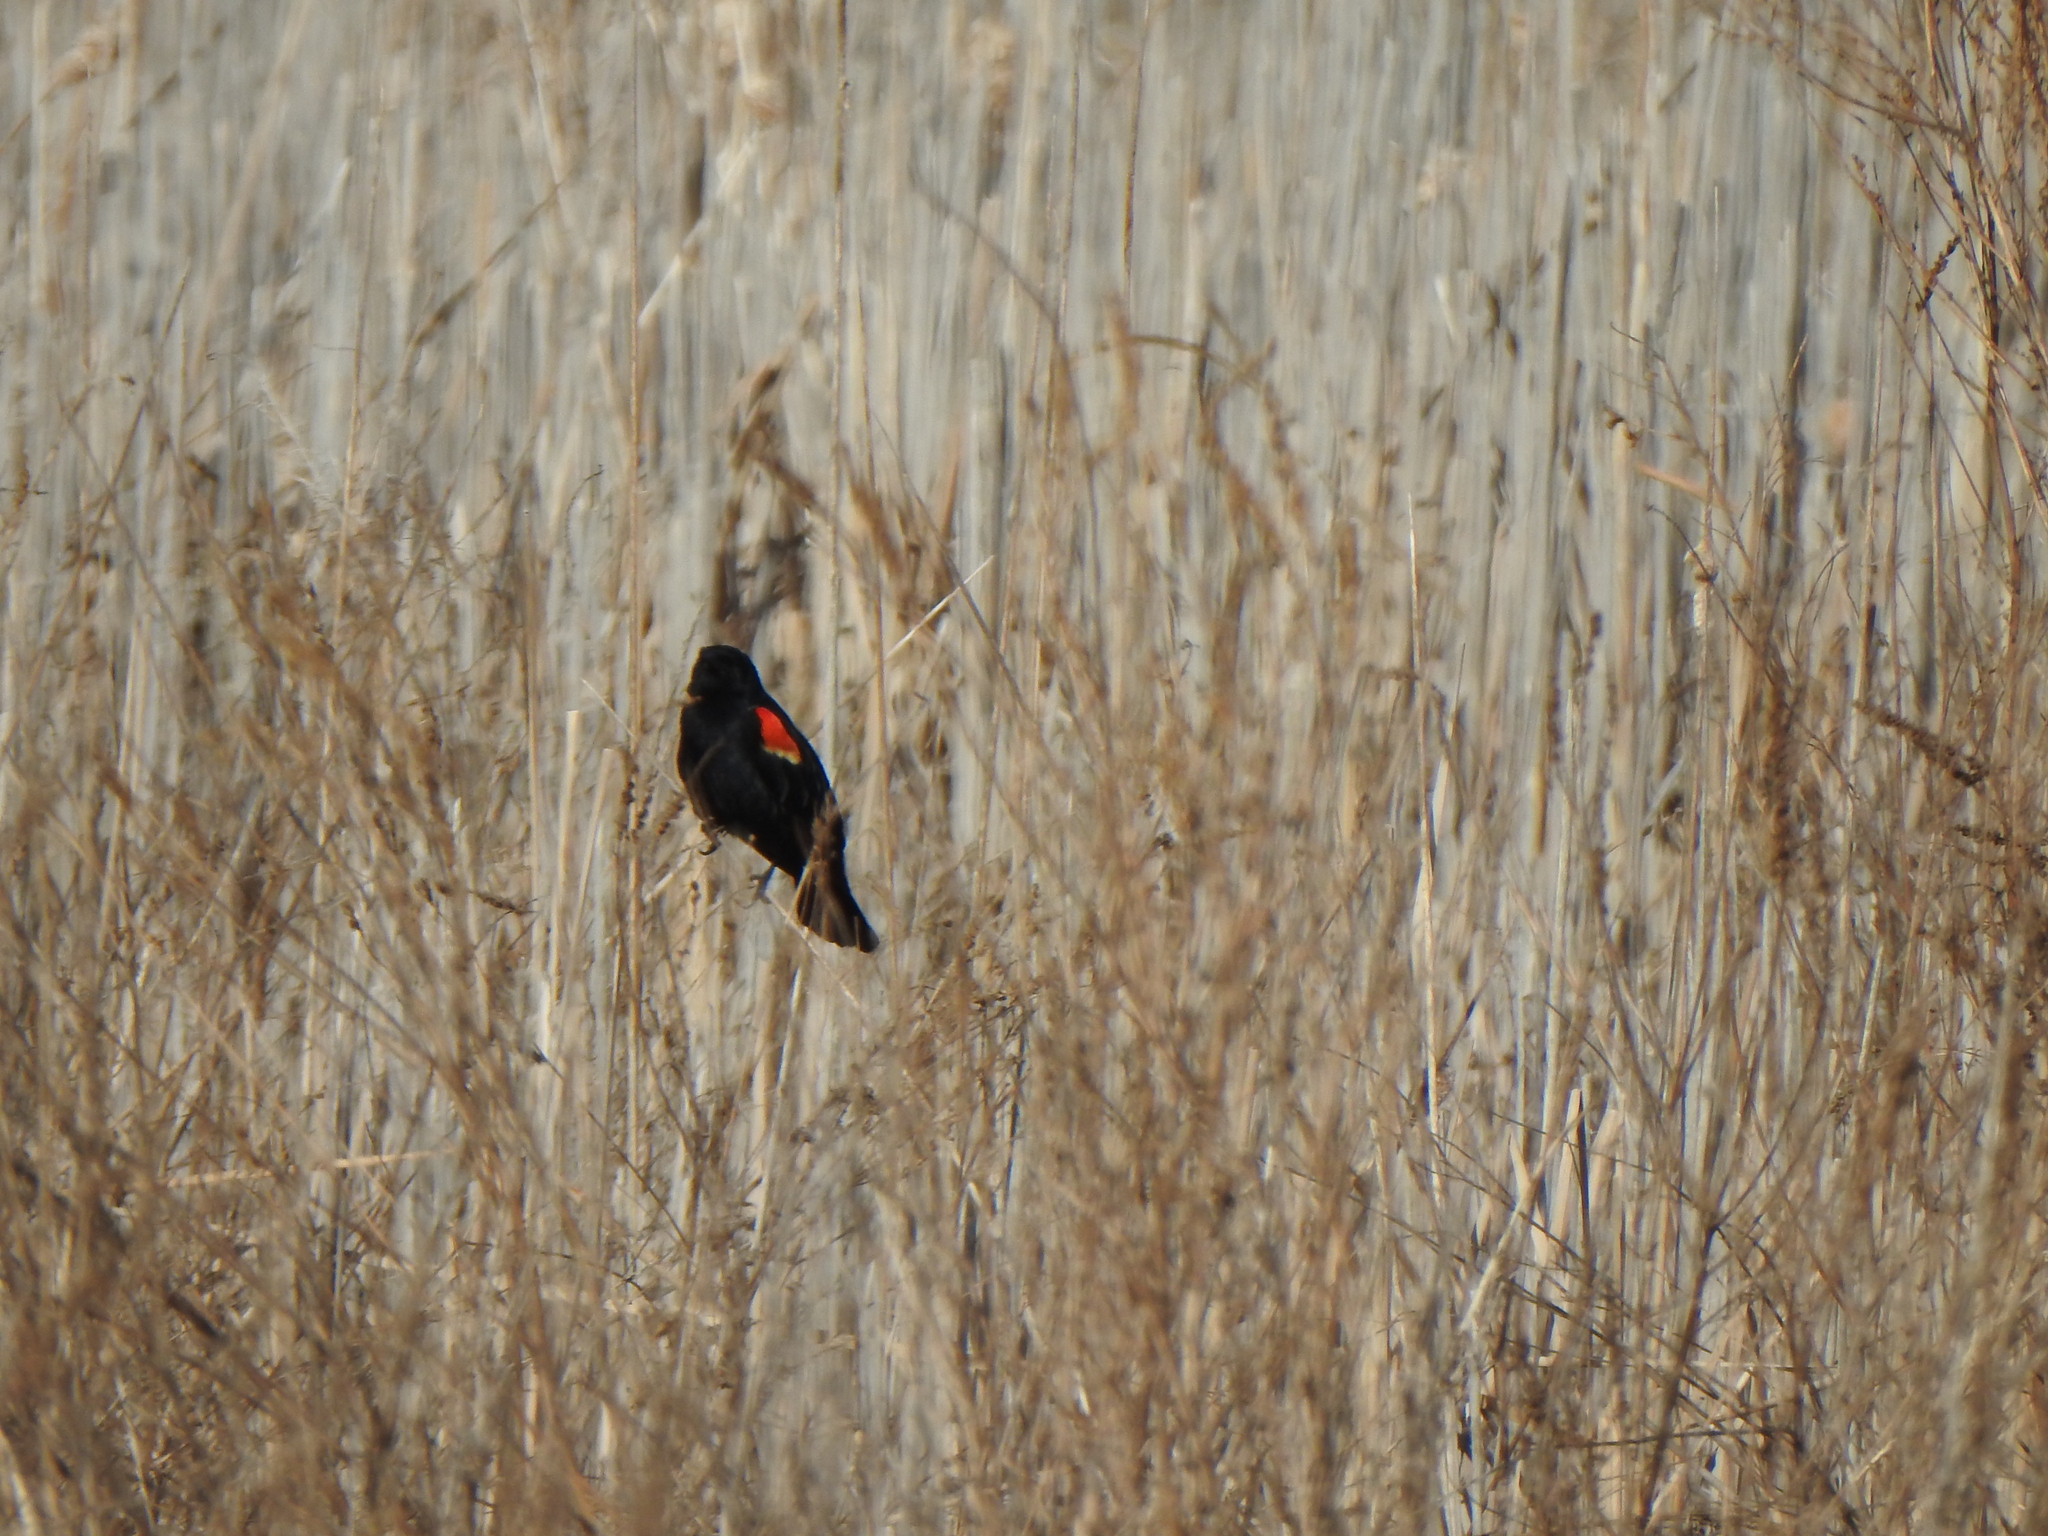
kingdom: Animalia
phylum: Chordata
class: Aves
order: Passeriformes
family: Icteridae
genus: Agelaius
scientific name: Agelaius phoeniceus
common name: Red-winged blackbird
